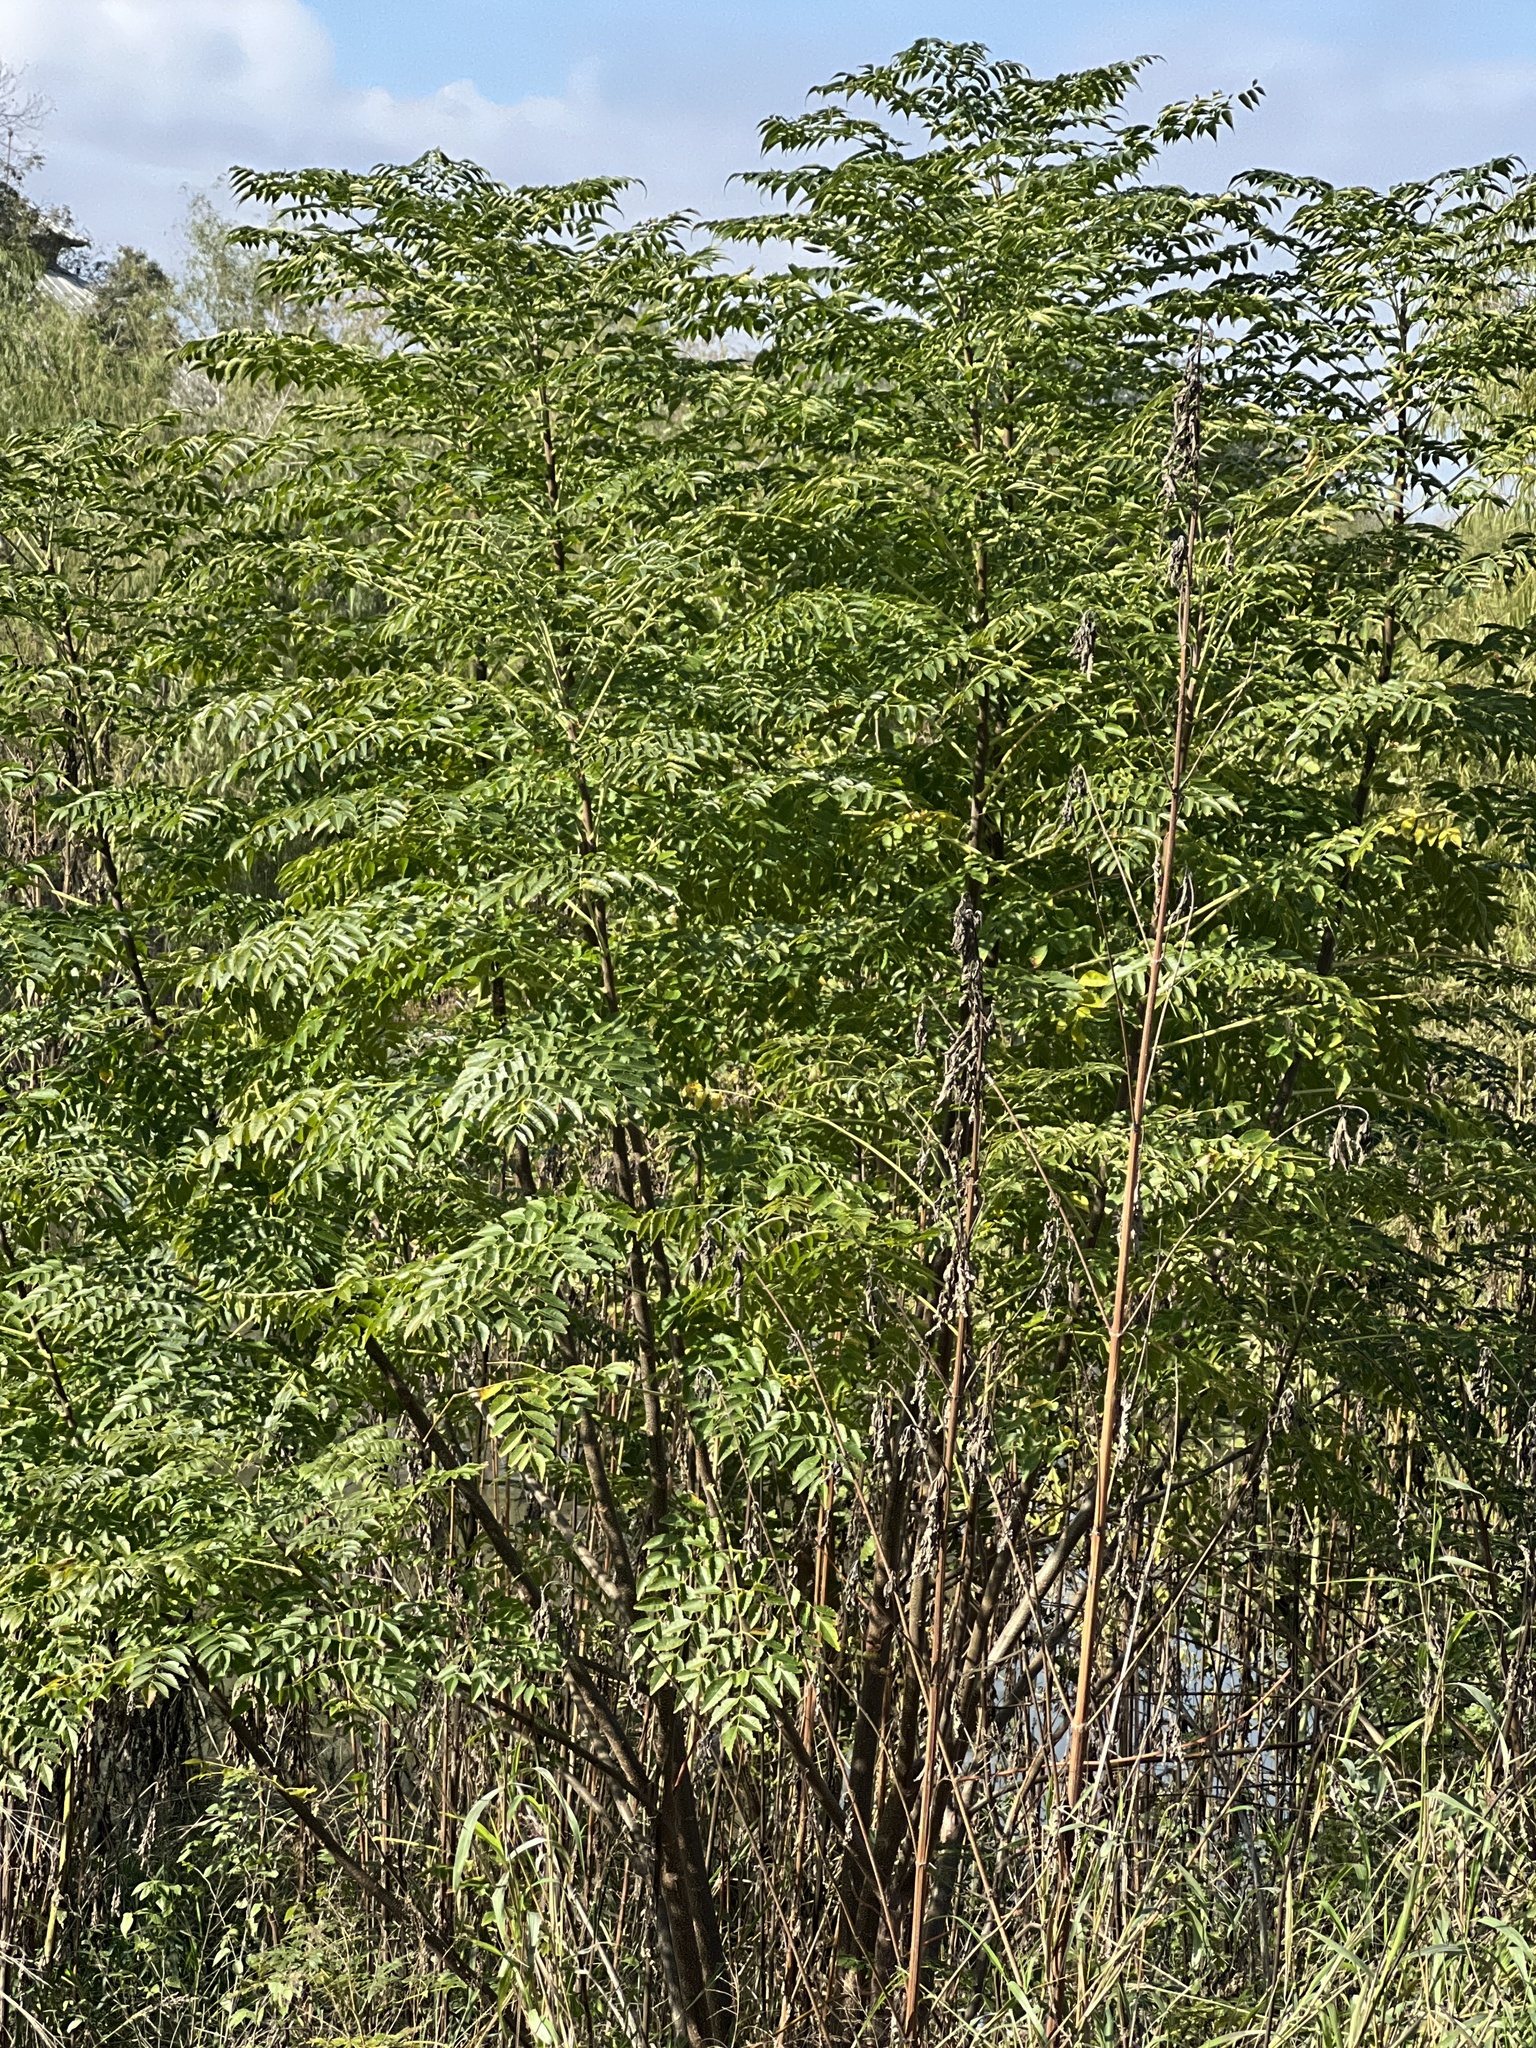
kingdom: Plantae
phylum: Tracheophyta
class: Magnoliopsida
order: Sapindales
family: Meliaceae
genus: Melia
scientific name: Melia azedarach
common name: Chinaberrytree
